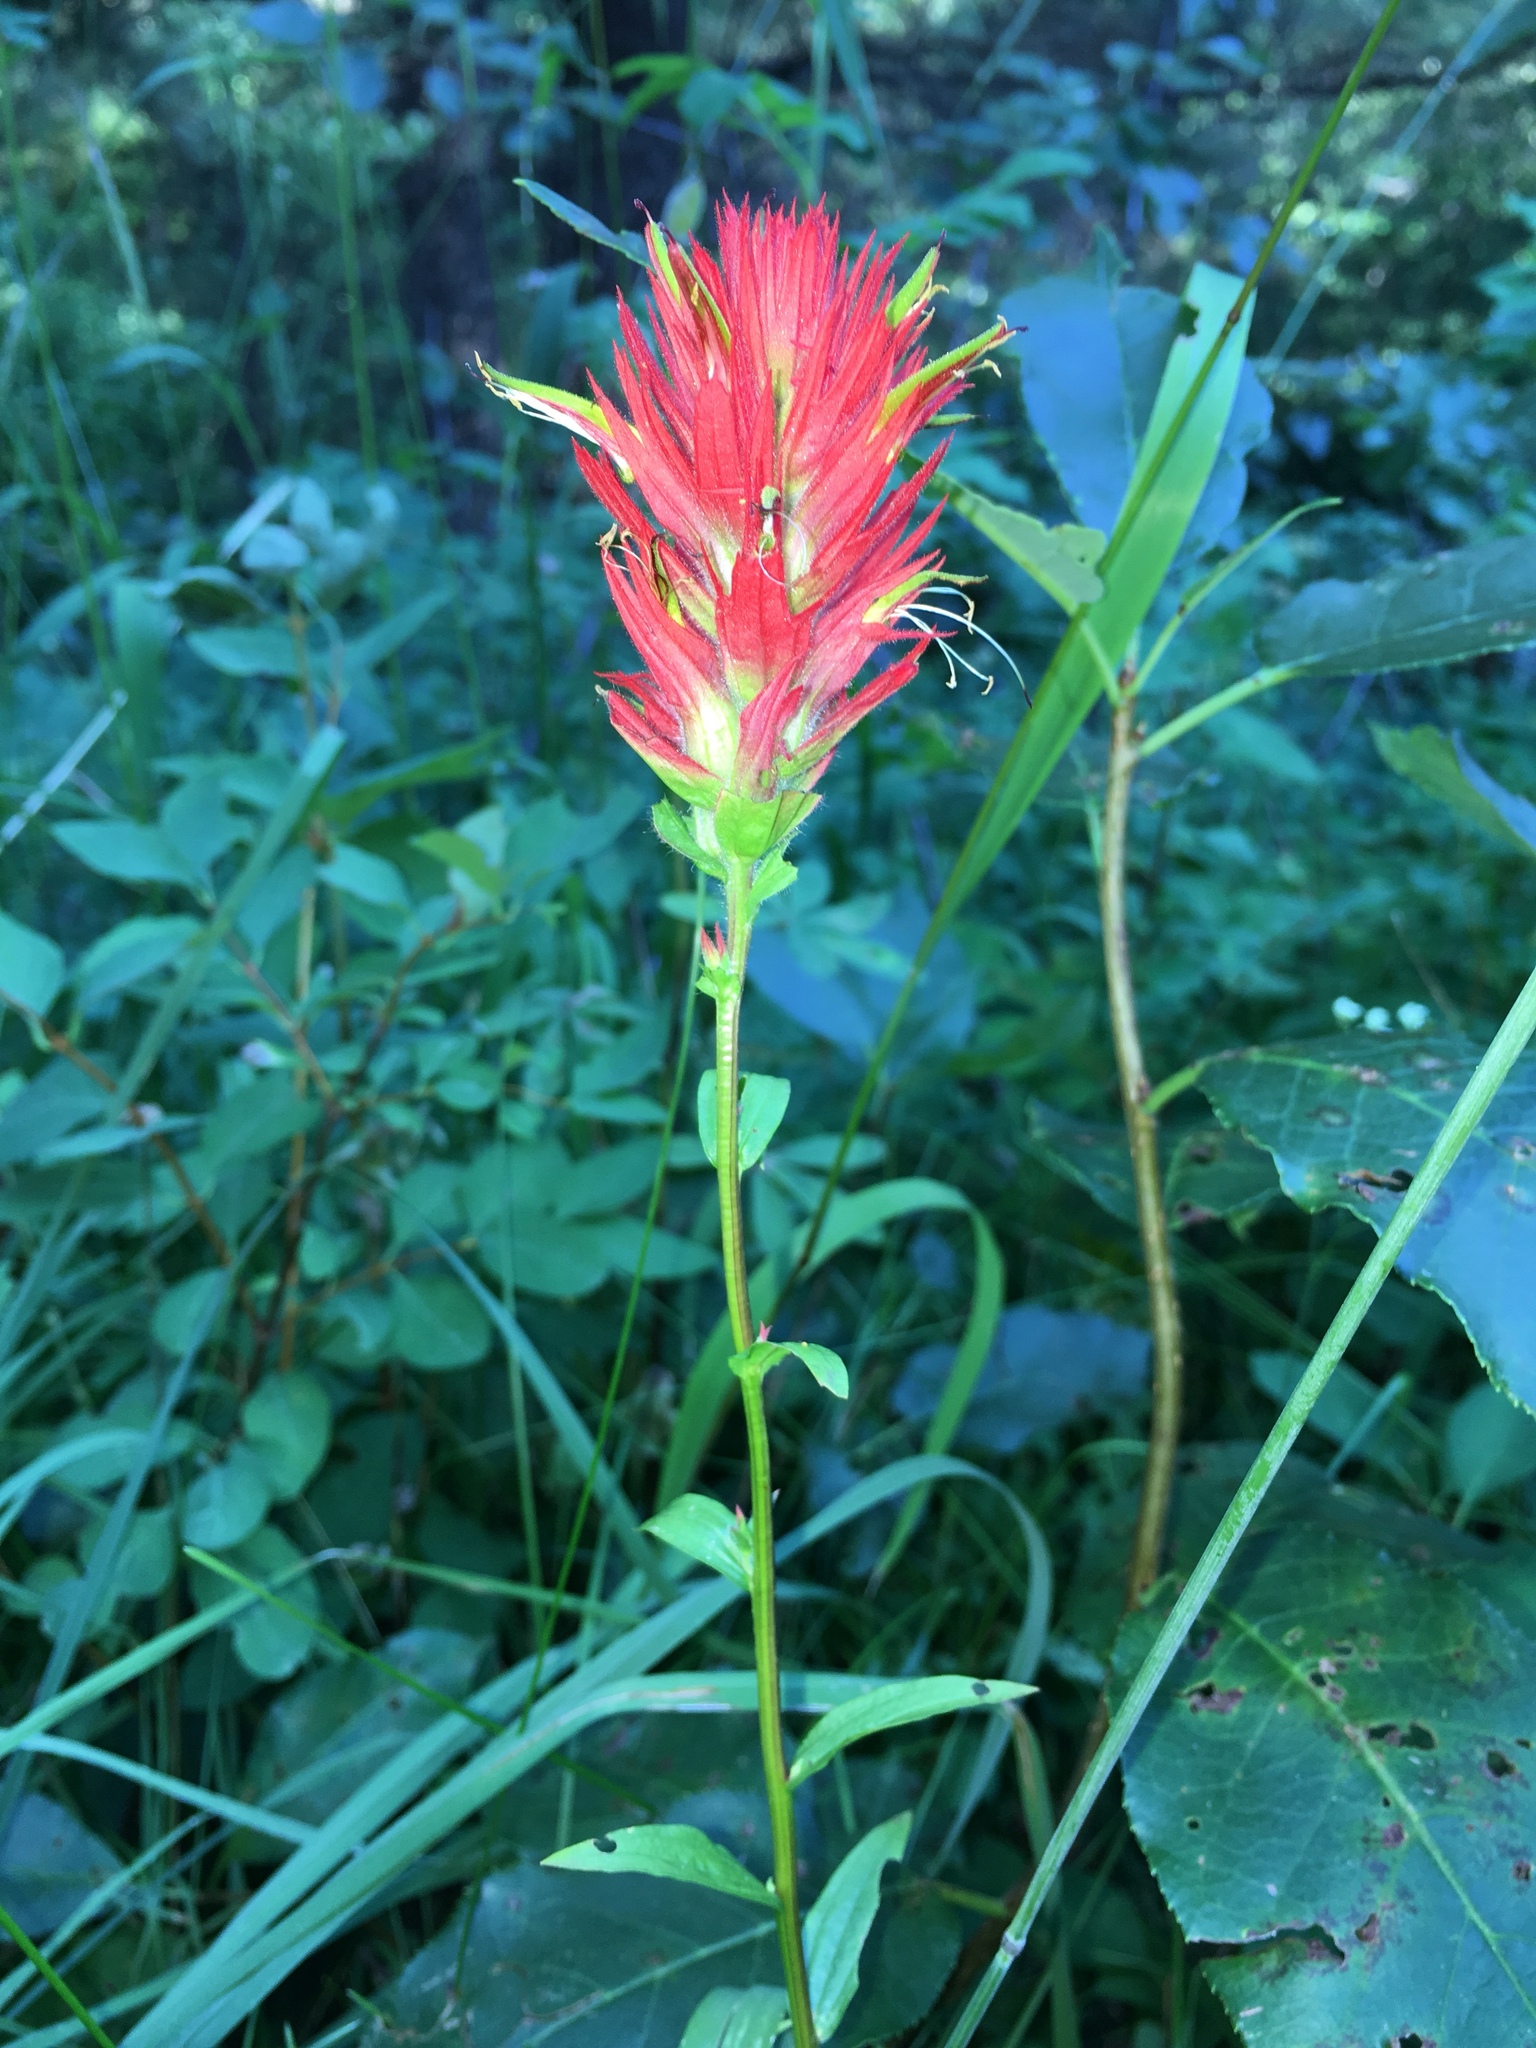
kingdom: Plantae
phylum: Tracheophyta
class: Magnoliopsida
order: Lamiales
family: Orobanchaceae
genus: Castilleja
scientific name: Castilleja miniata
